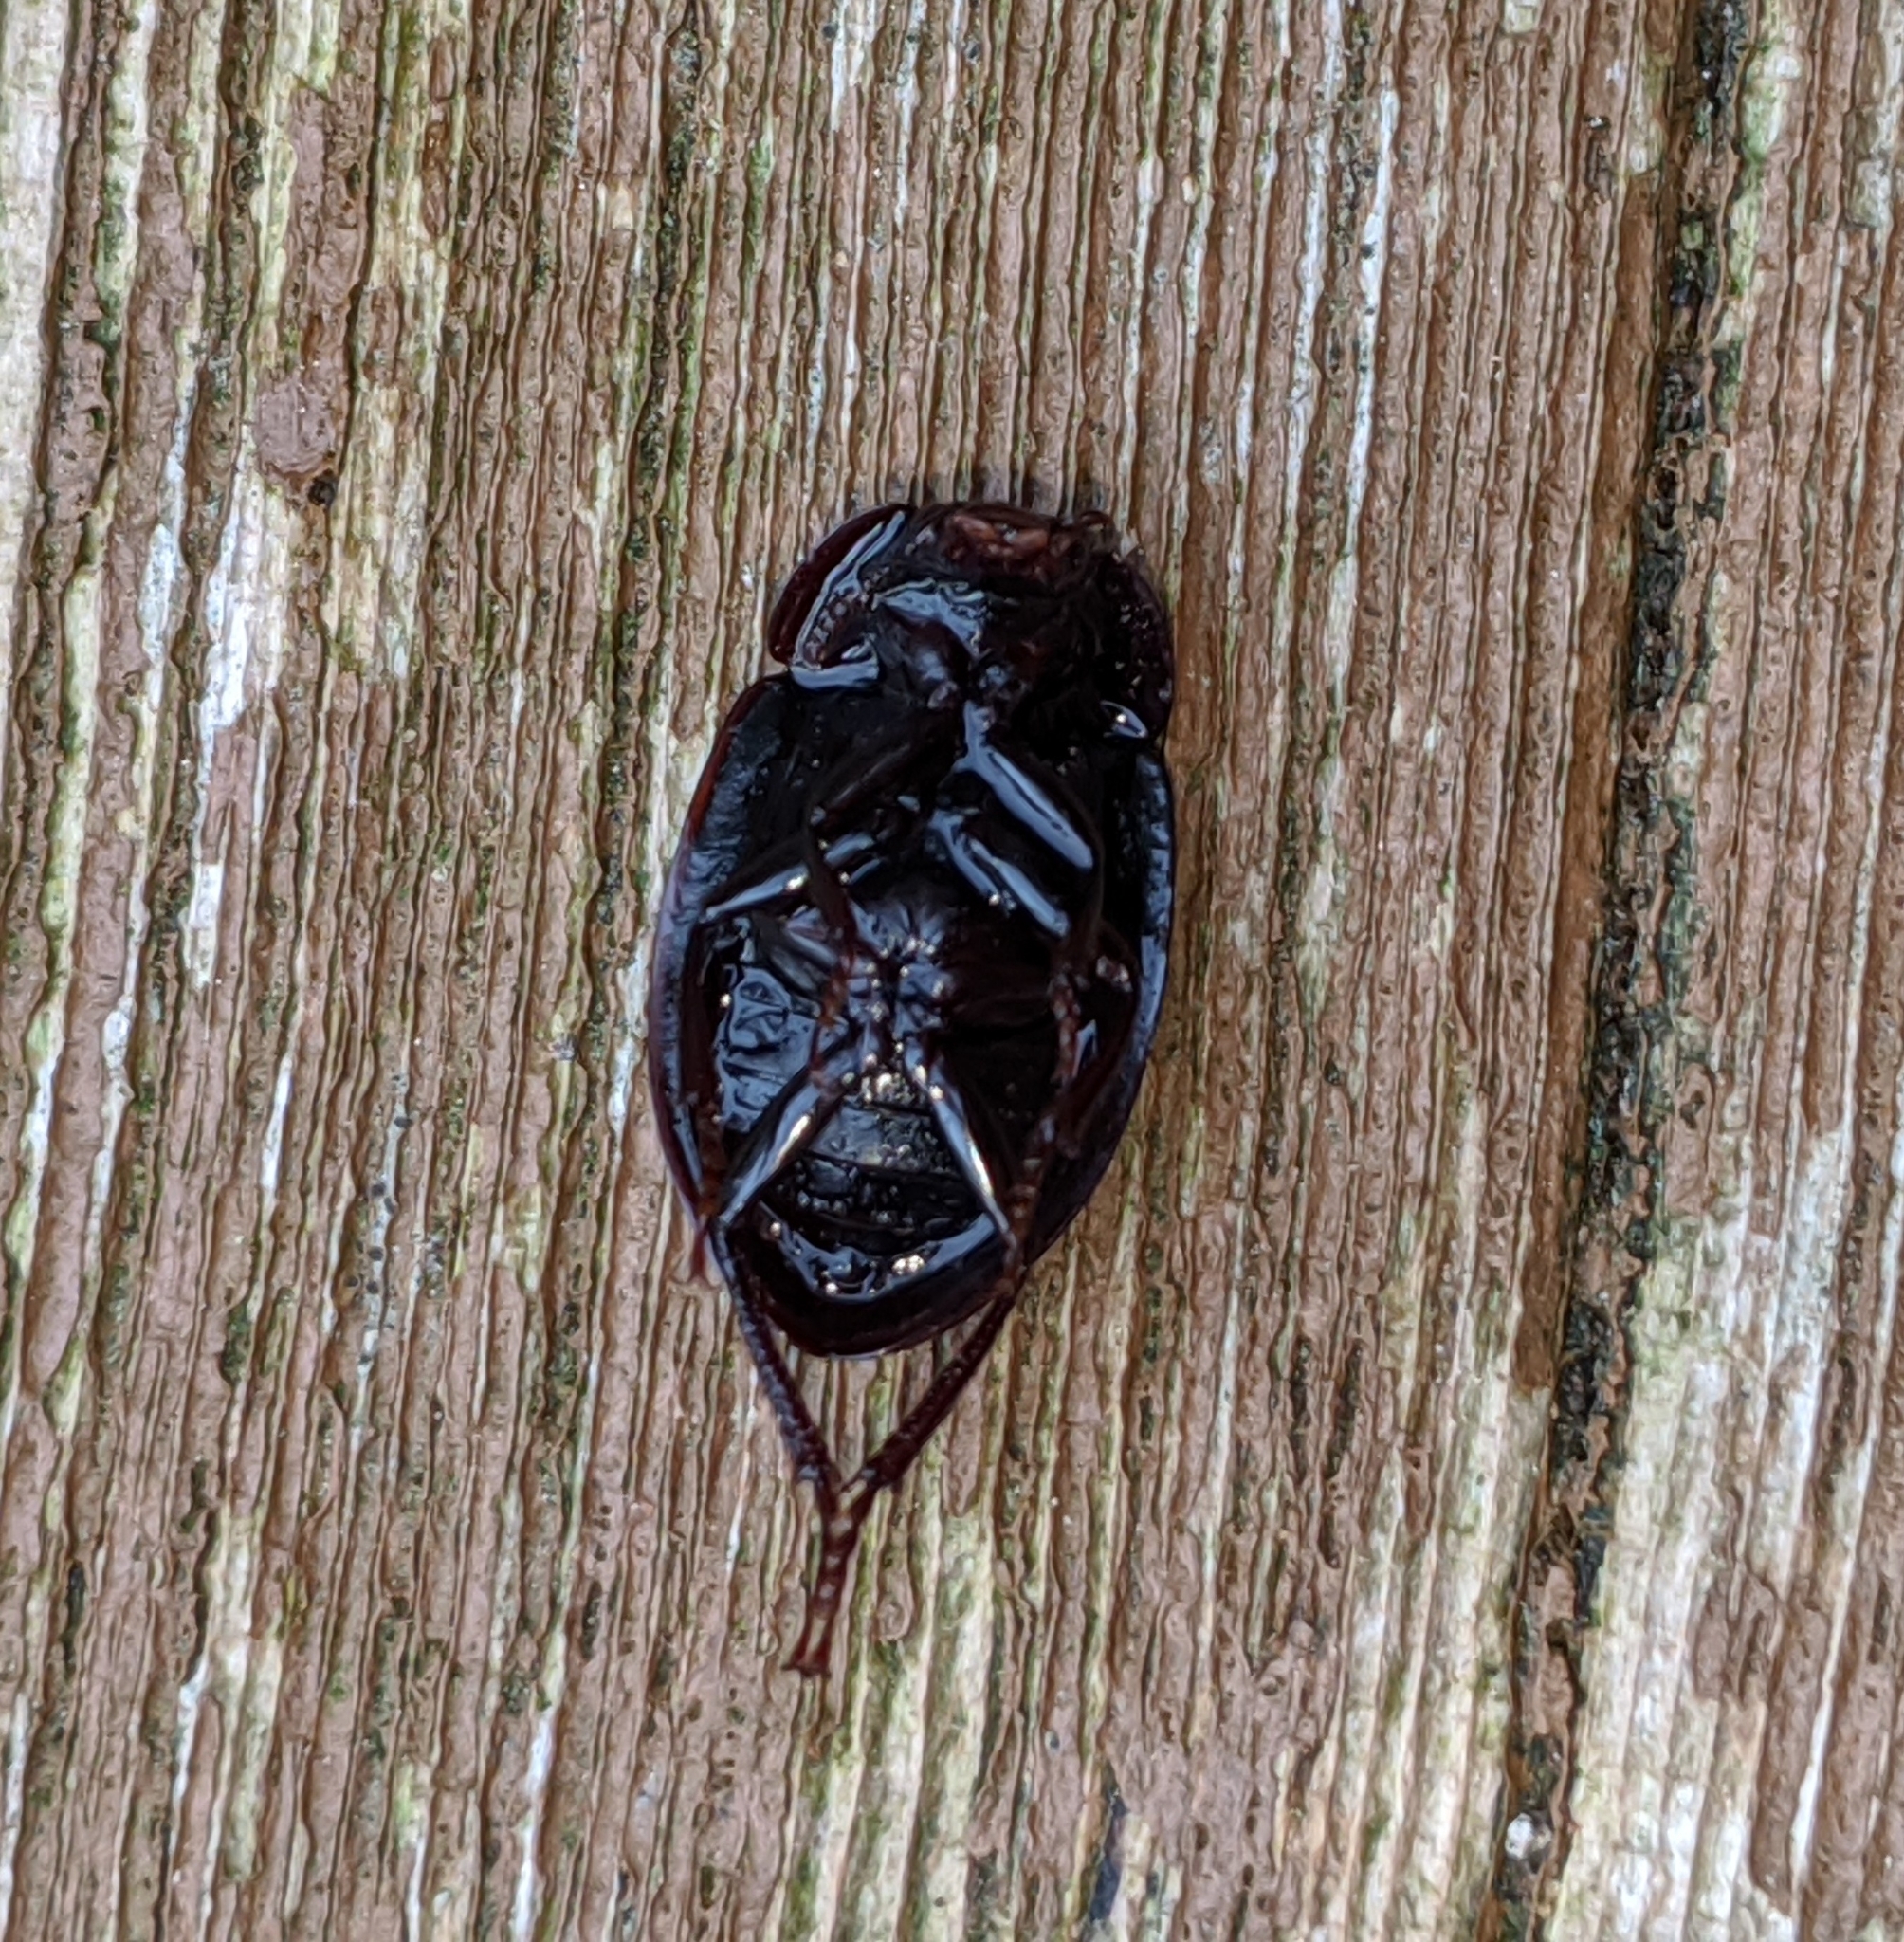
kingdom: Animalia
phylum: Arthropoda
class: Insecta
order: Coleoptera
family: Agyrtidae
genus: Necrophilus
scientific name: Necrophilus hydrophiloides
